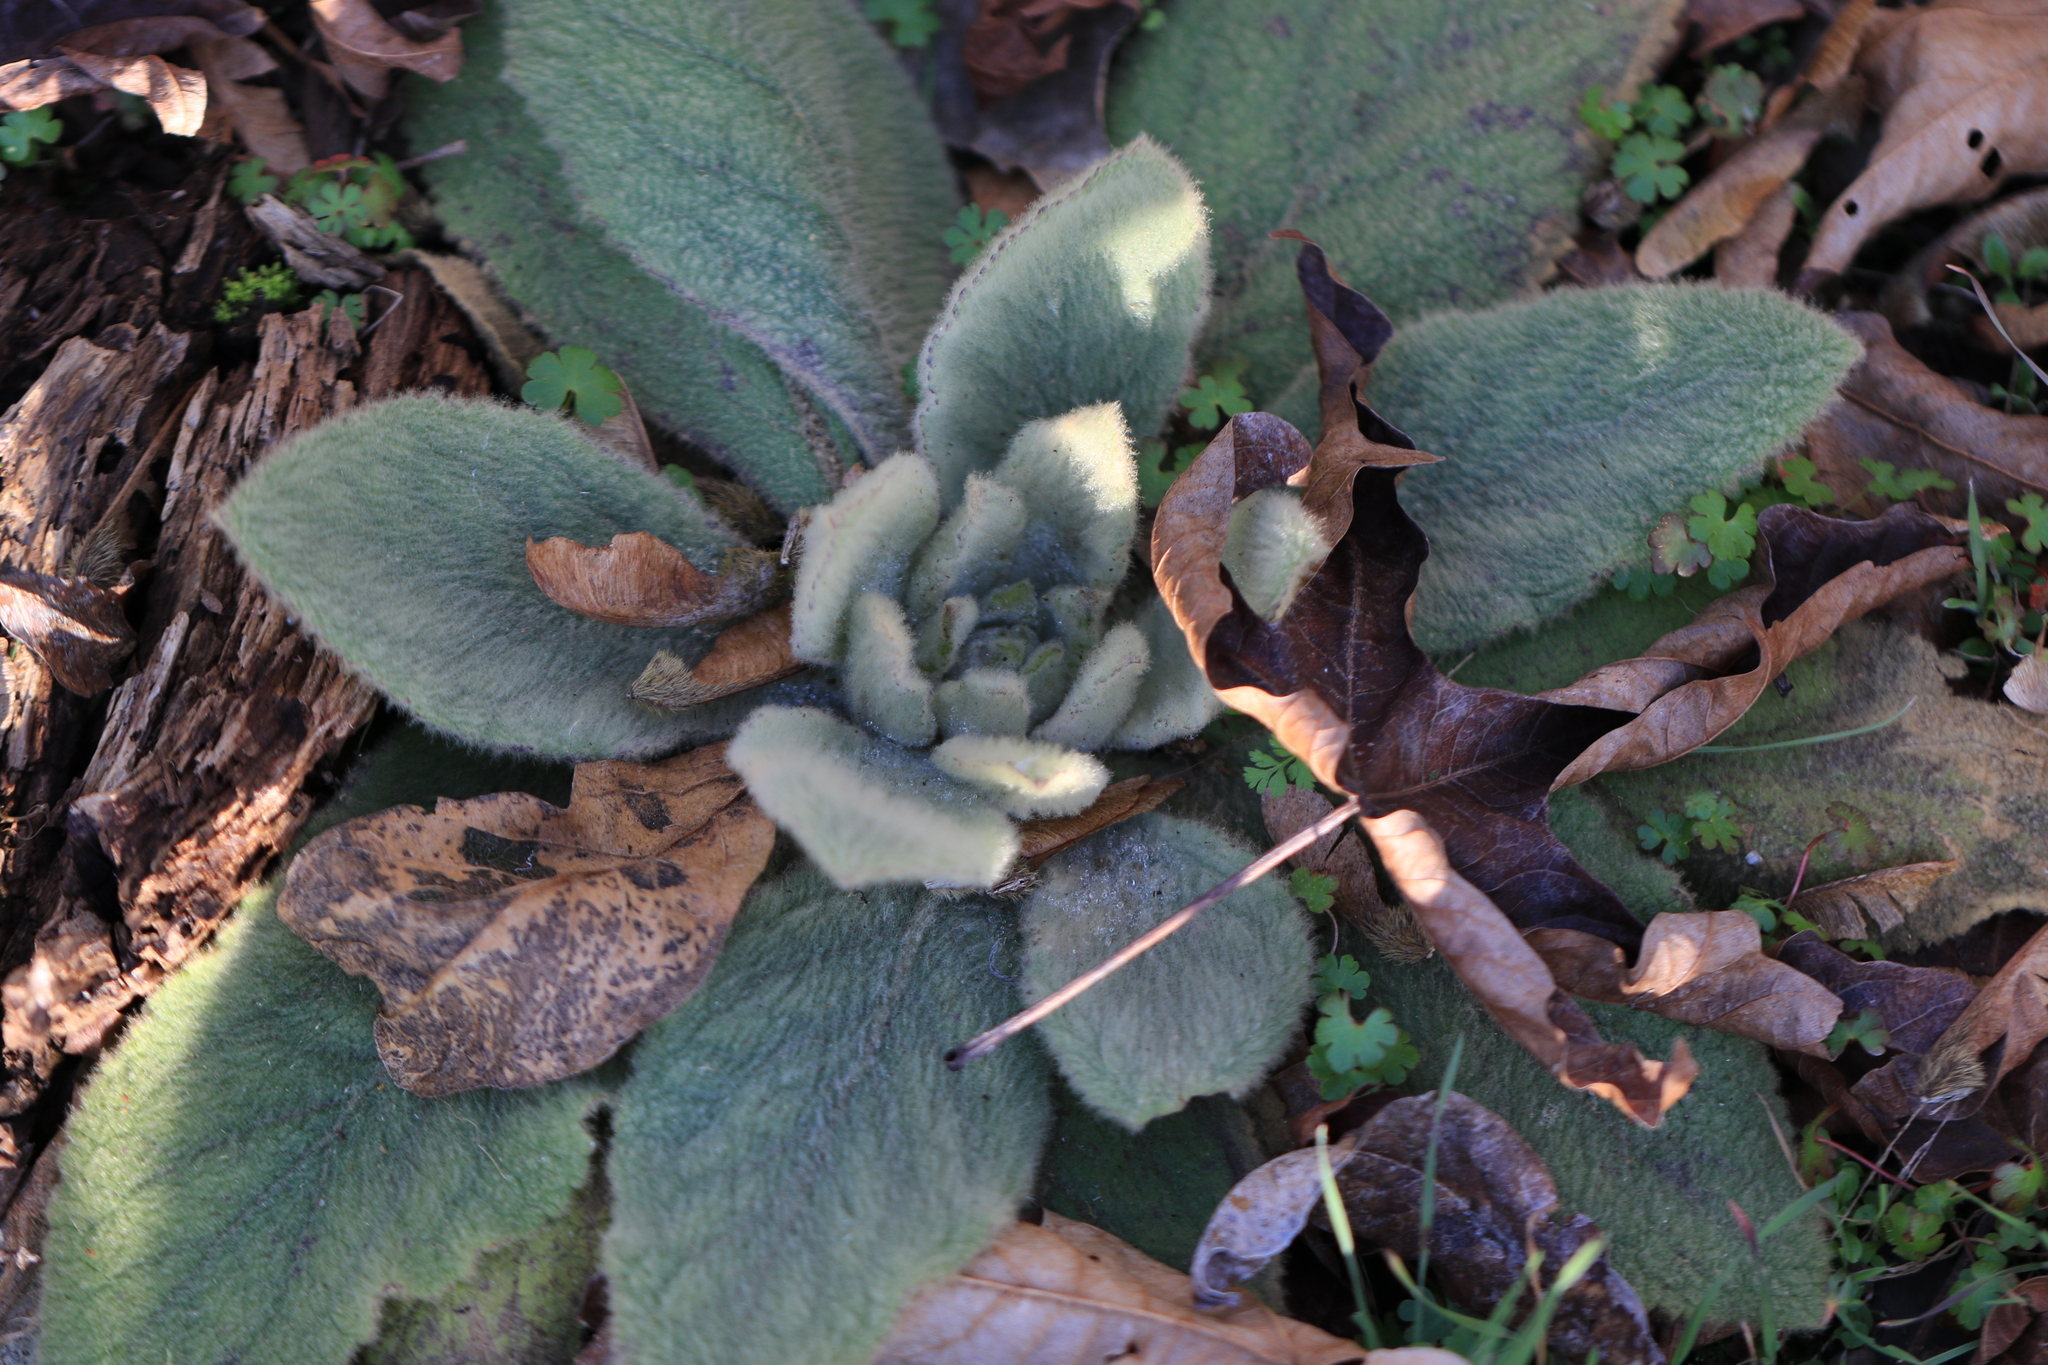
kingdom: Plantae
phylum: Tracheophyta
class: Magnoliopsida
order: Lamiales
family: Scrophulariaceae
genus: Verbascum
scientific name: Verbascum thapsus
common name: Common mullein
